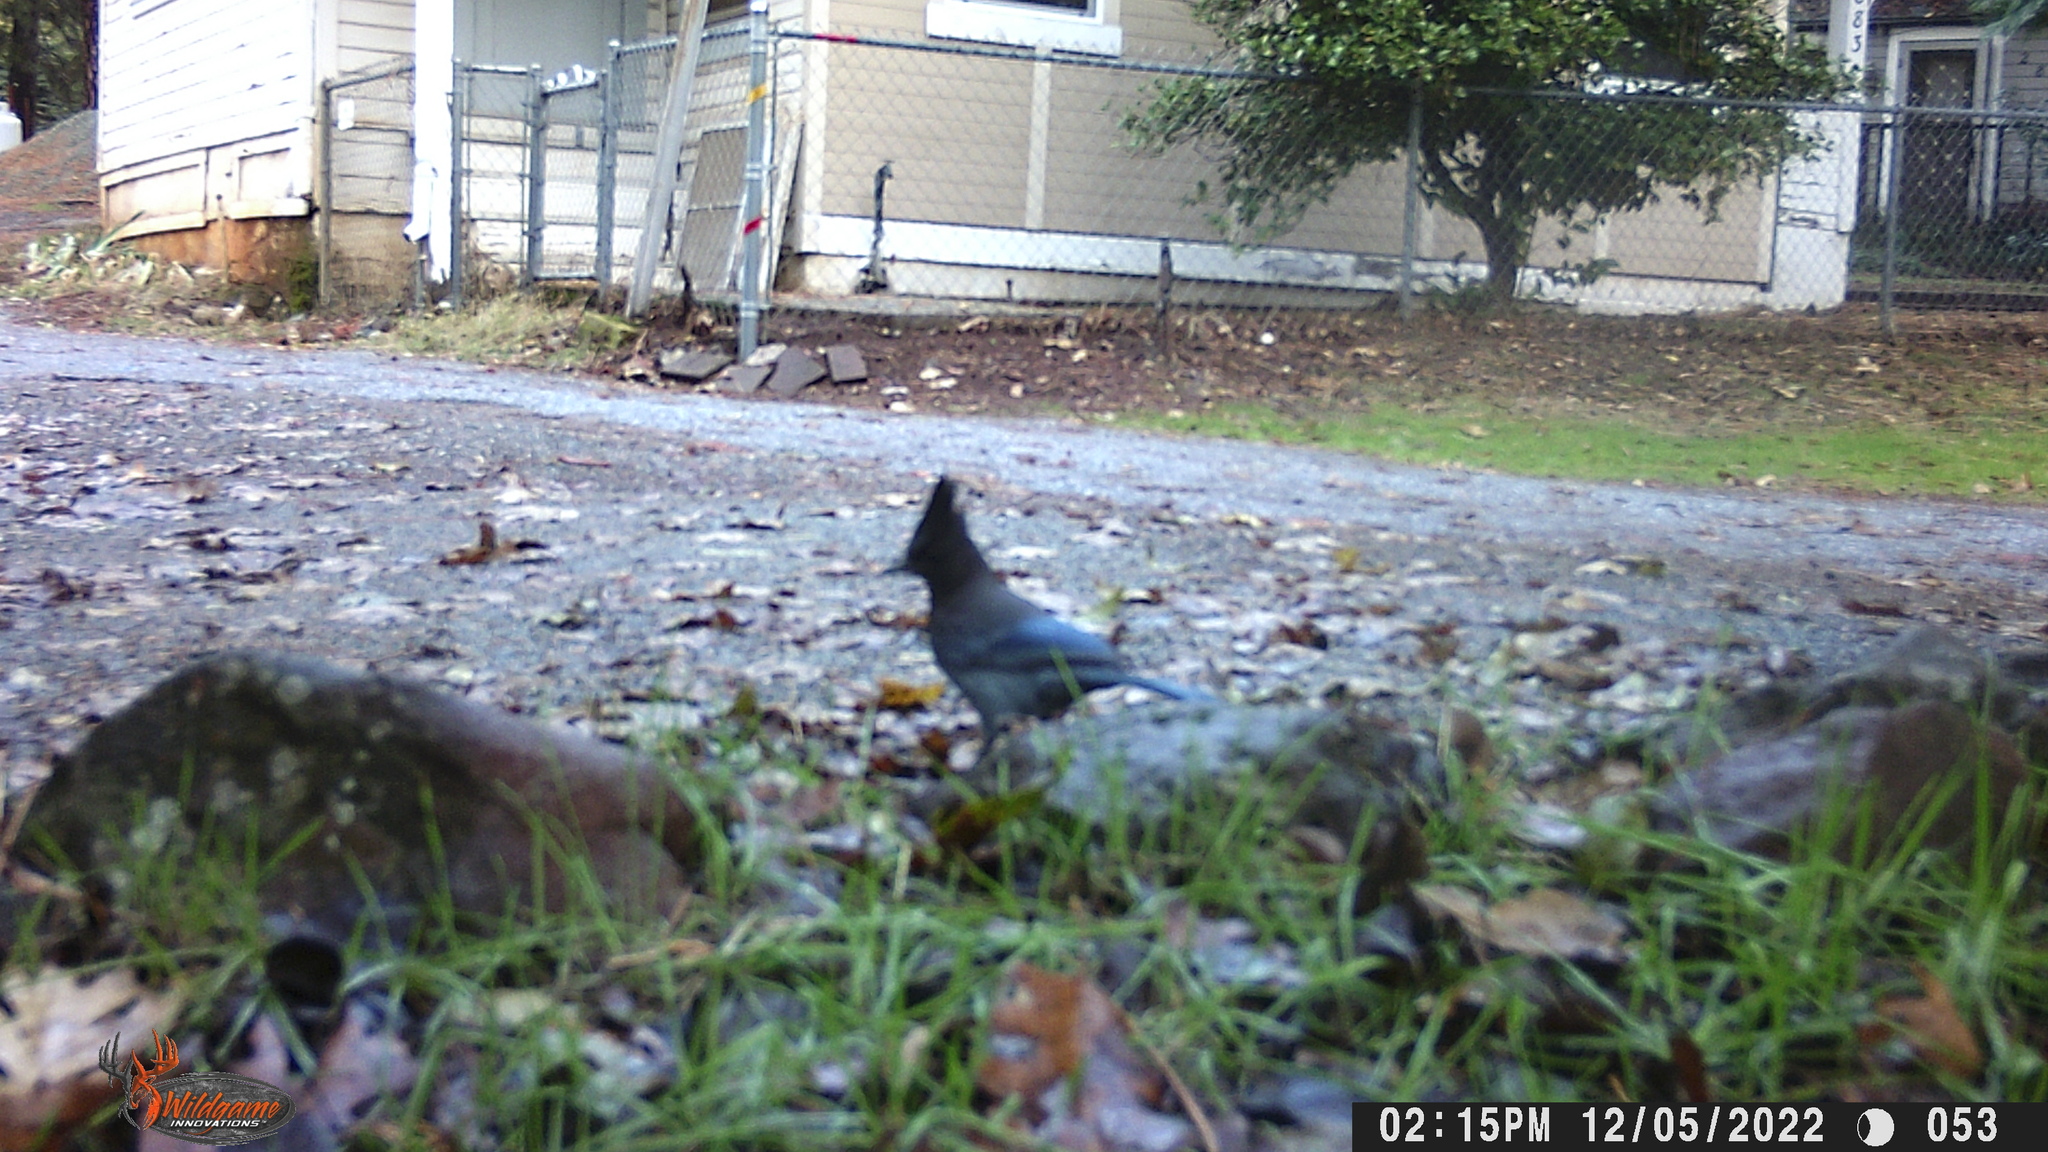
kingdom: Animalia
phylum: Chordata
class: Aves
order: Passeriformes
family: Corvidae
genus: Cyanocitta
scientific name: Cyanocitta stelleri
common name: Steller's jay
